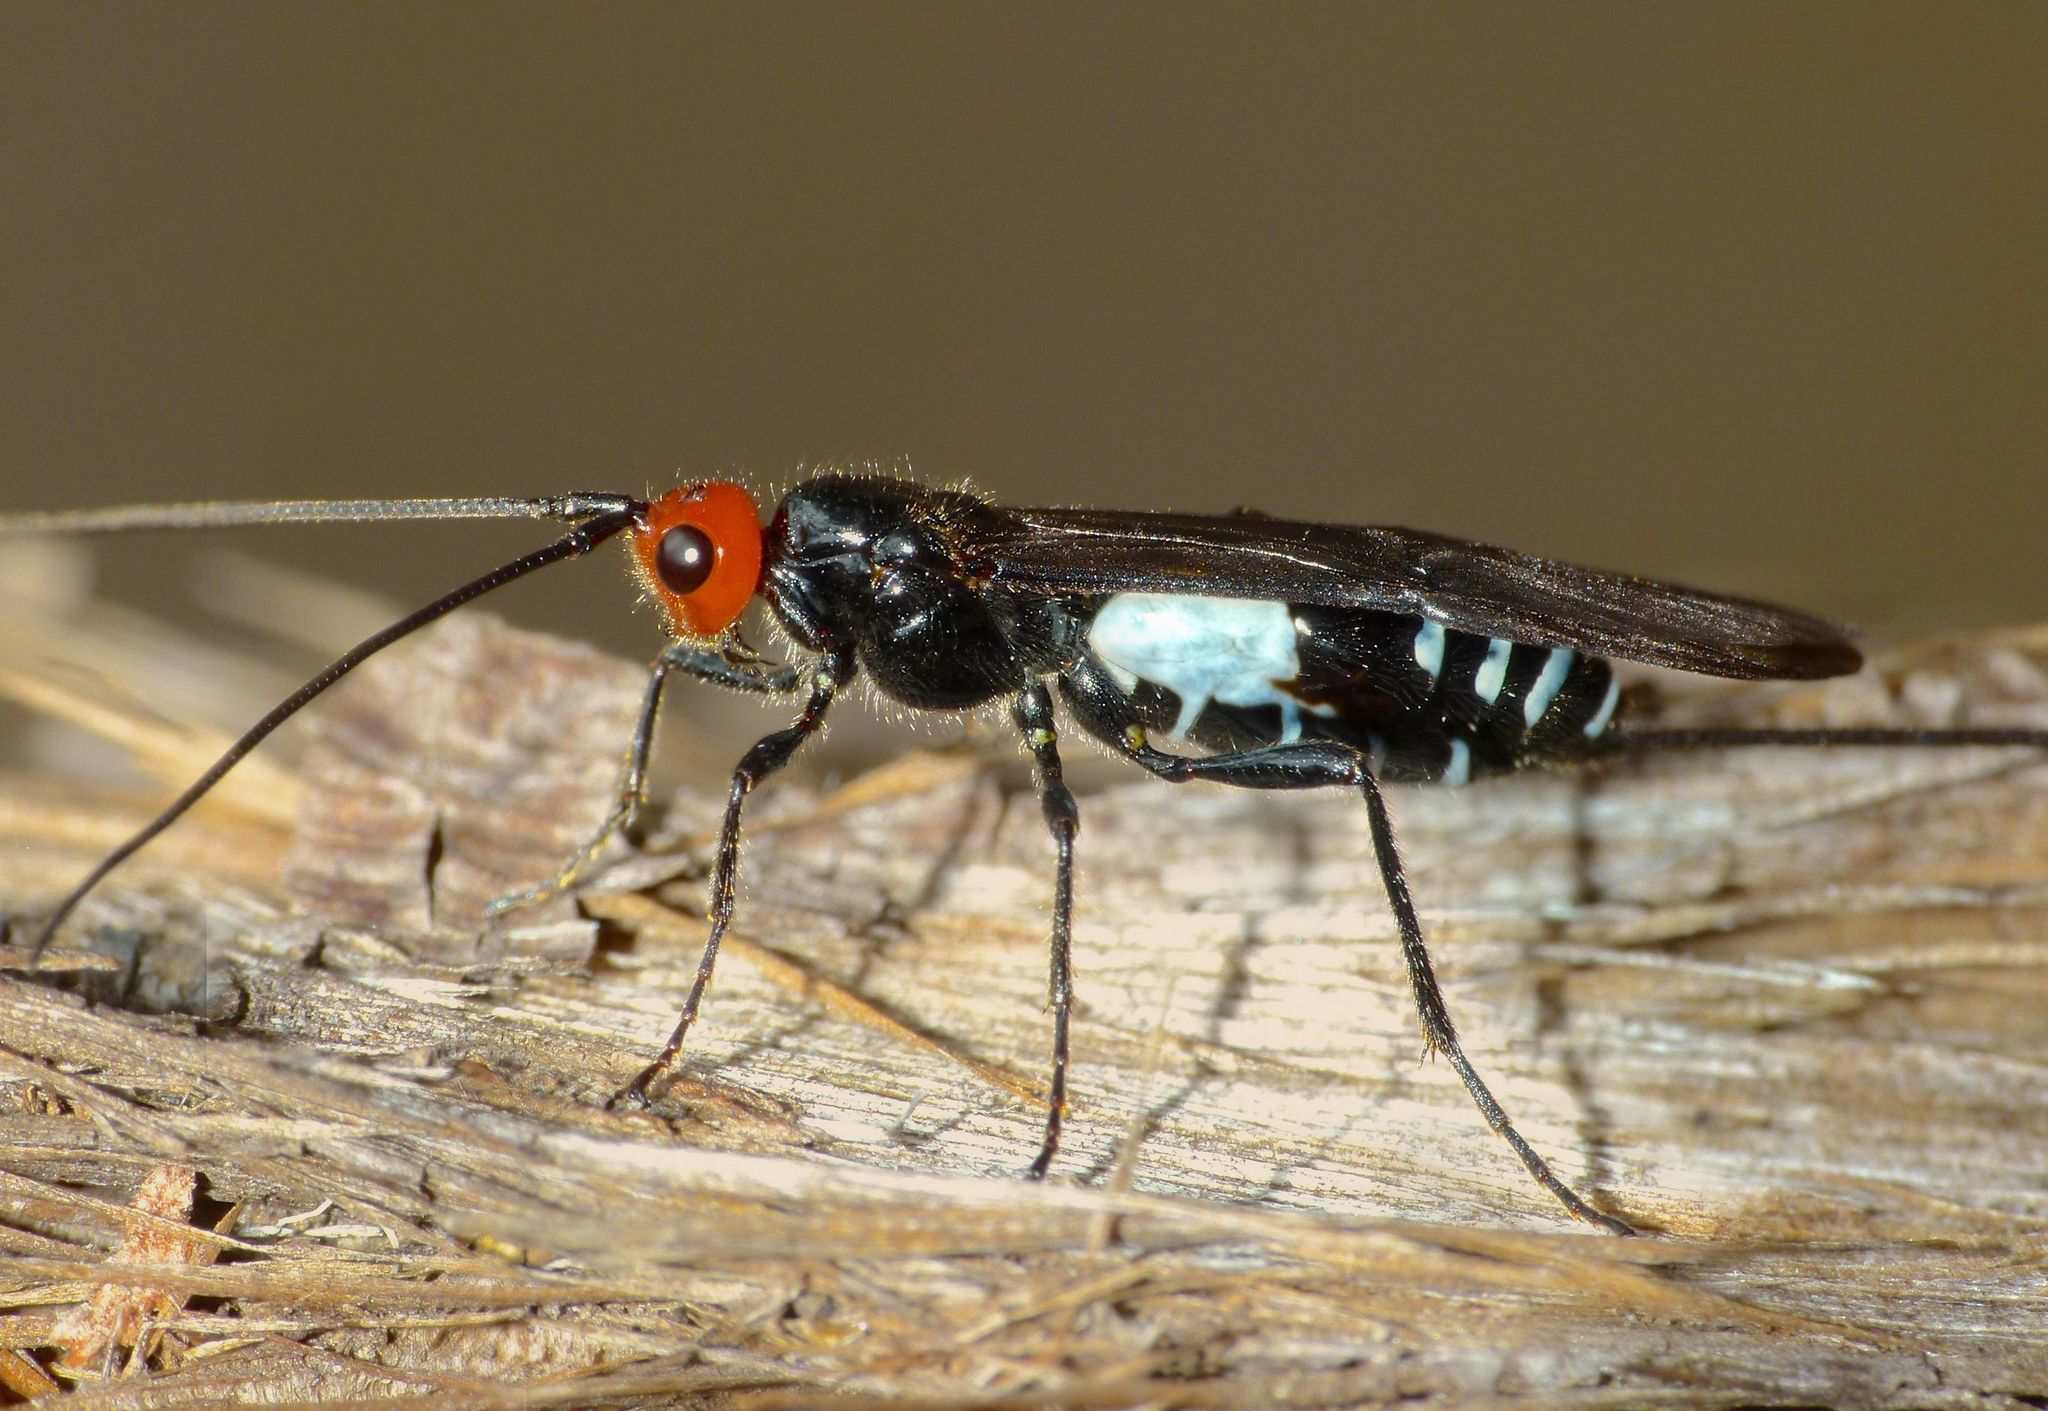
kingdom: Animalia
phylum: Arthropoda
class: Insecta
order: Hymenoptera
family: Braconidae
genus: Callibracon
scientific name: Callibracon capitator
